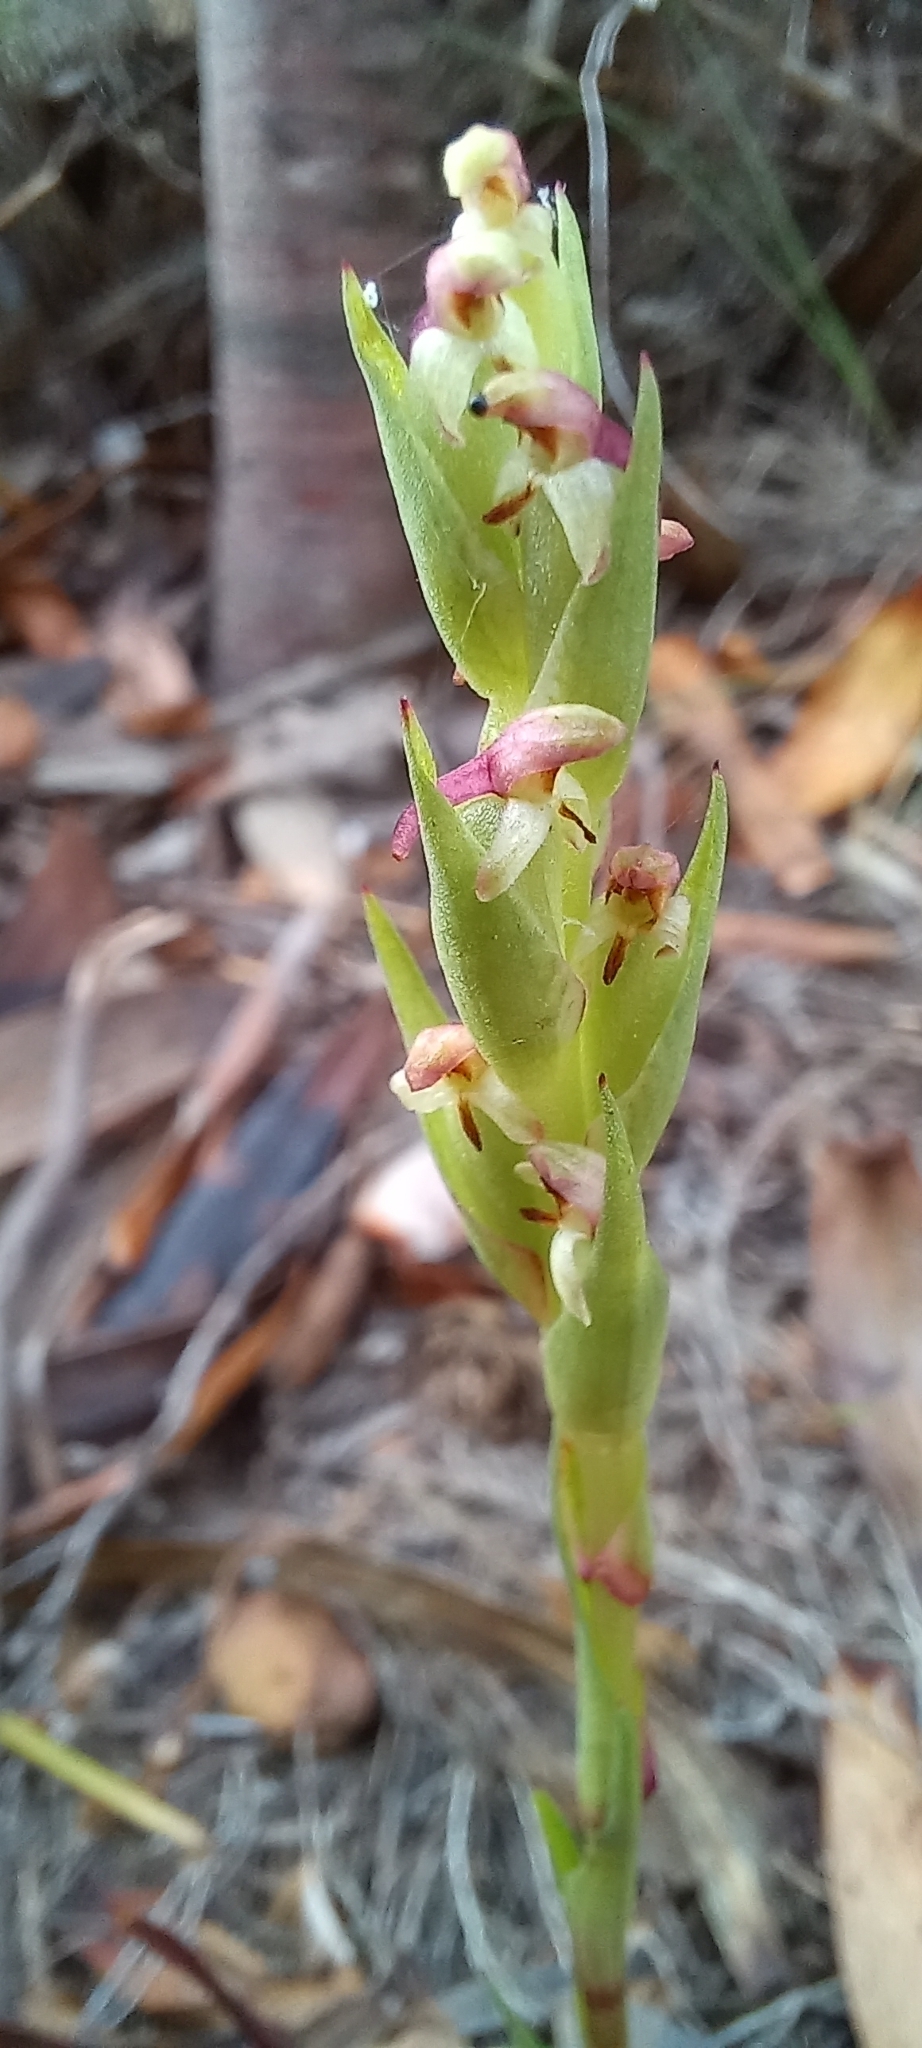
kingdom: Plantae
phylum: Tracheophyta
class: Liliopsida
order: Asparagales
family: Orchidaceae
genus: Disa
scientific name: Disa bracteata
